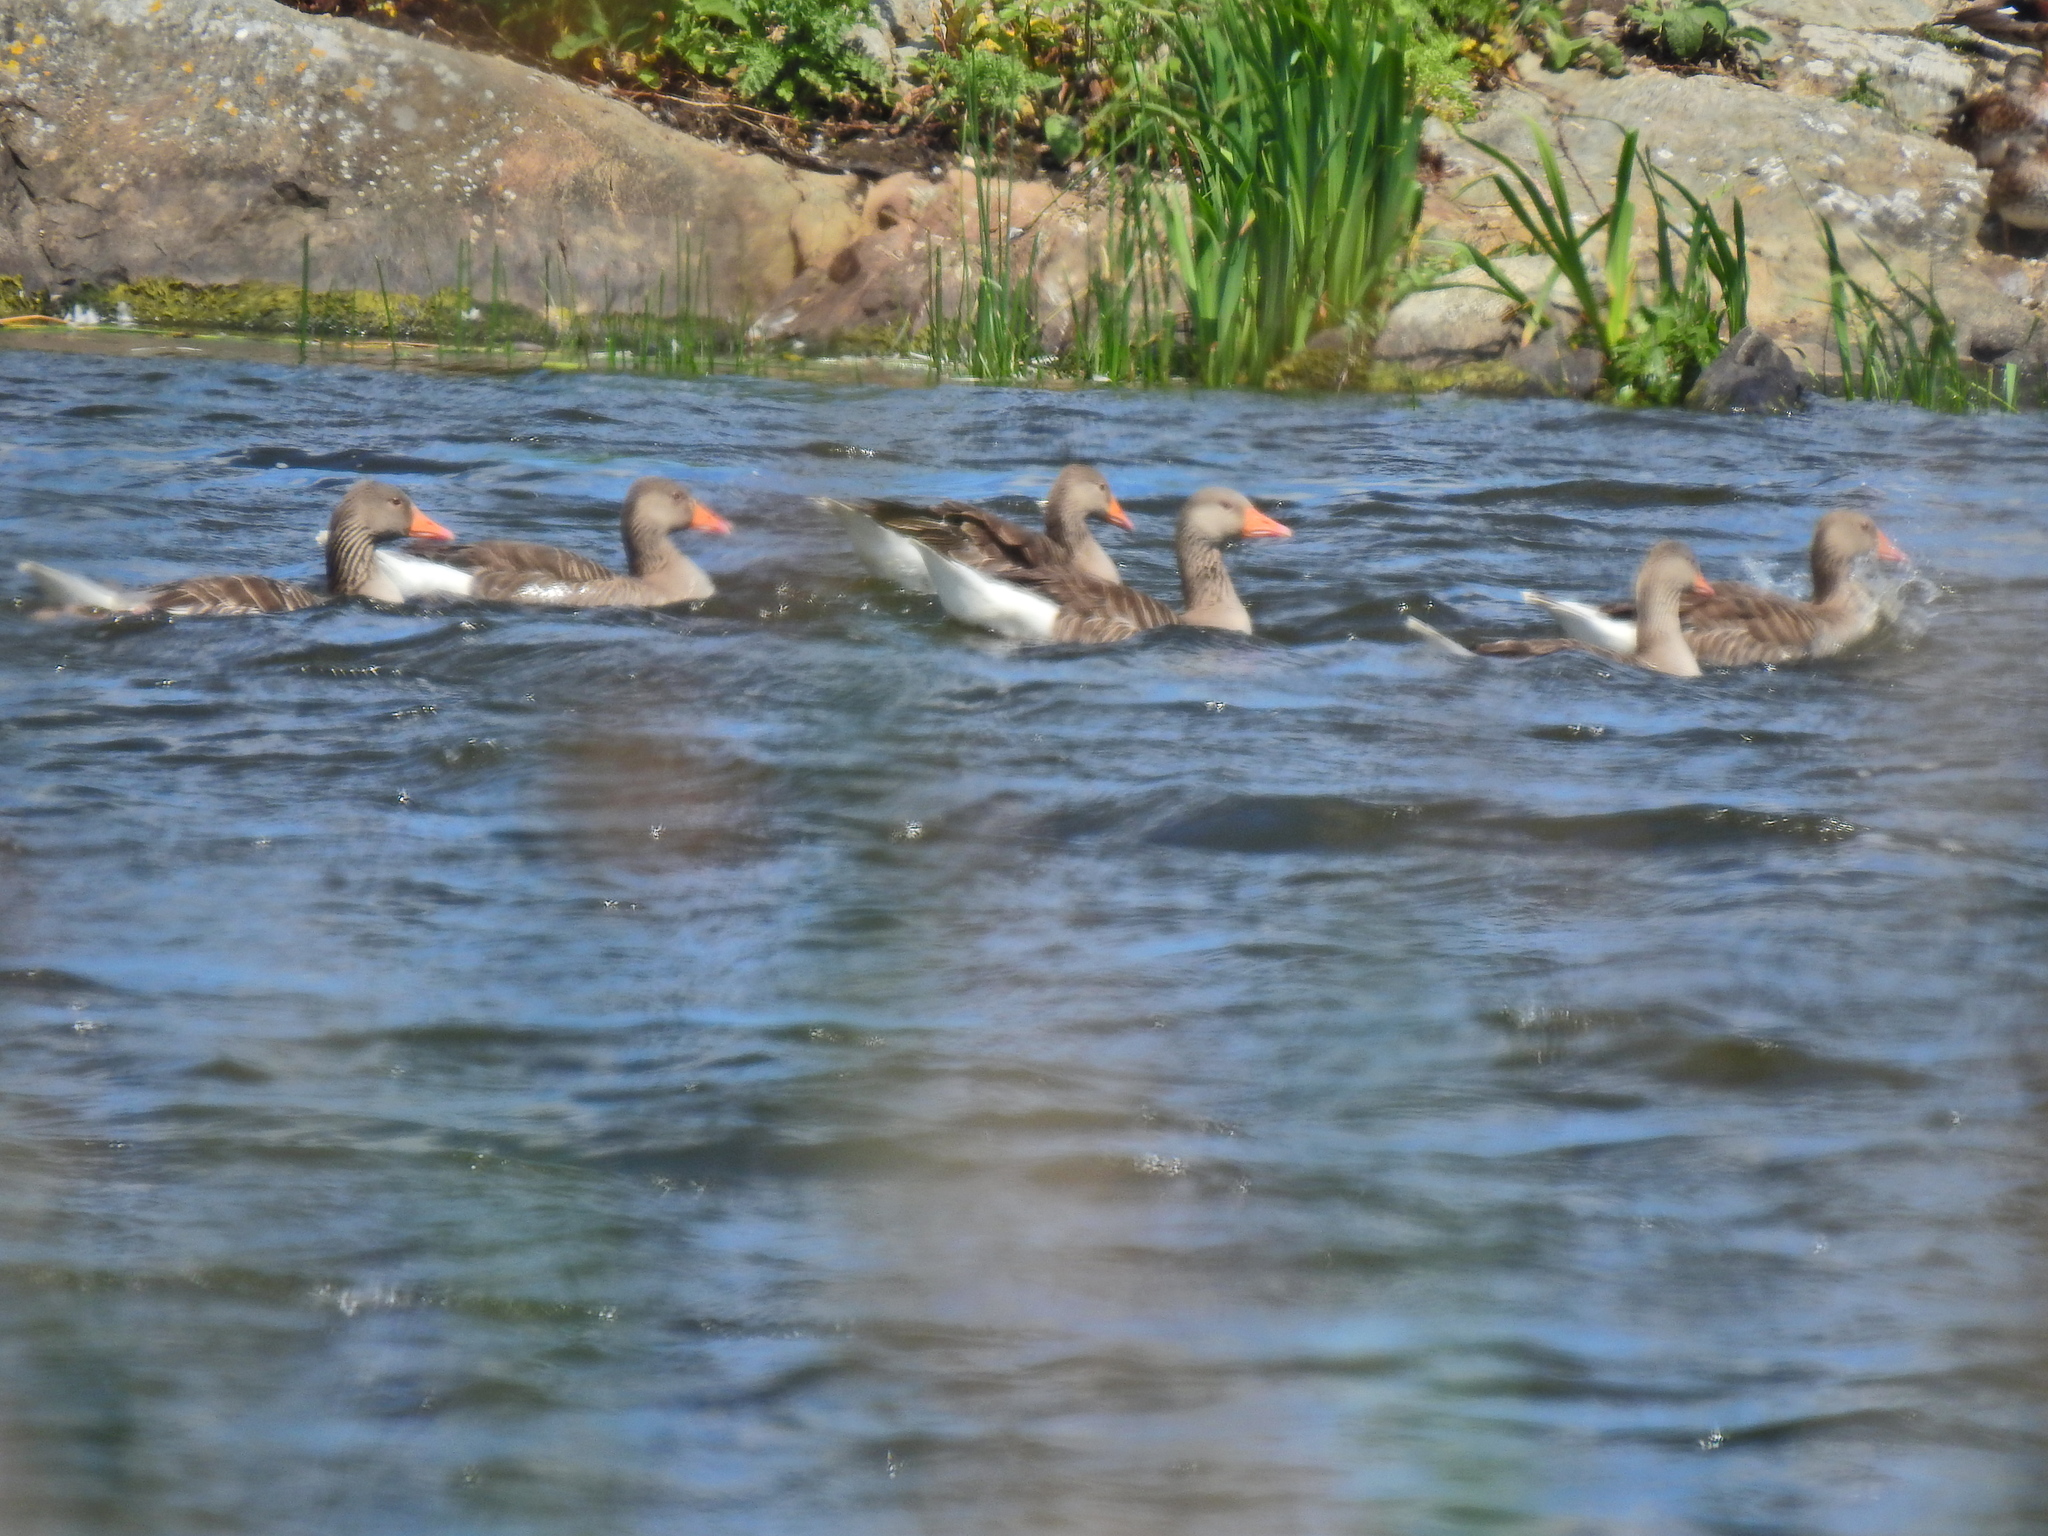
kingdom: Animalia
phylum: Chordata
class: Aves
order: Anseriformes
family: Anatidae
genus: Anser
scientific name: Anser anser
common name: Greylag goose
